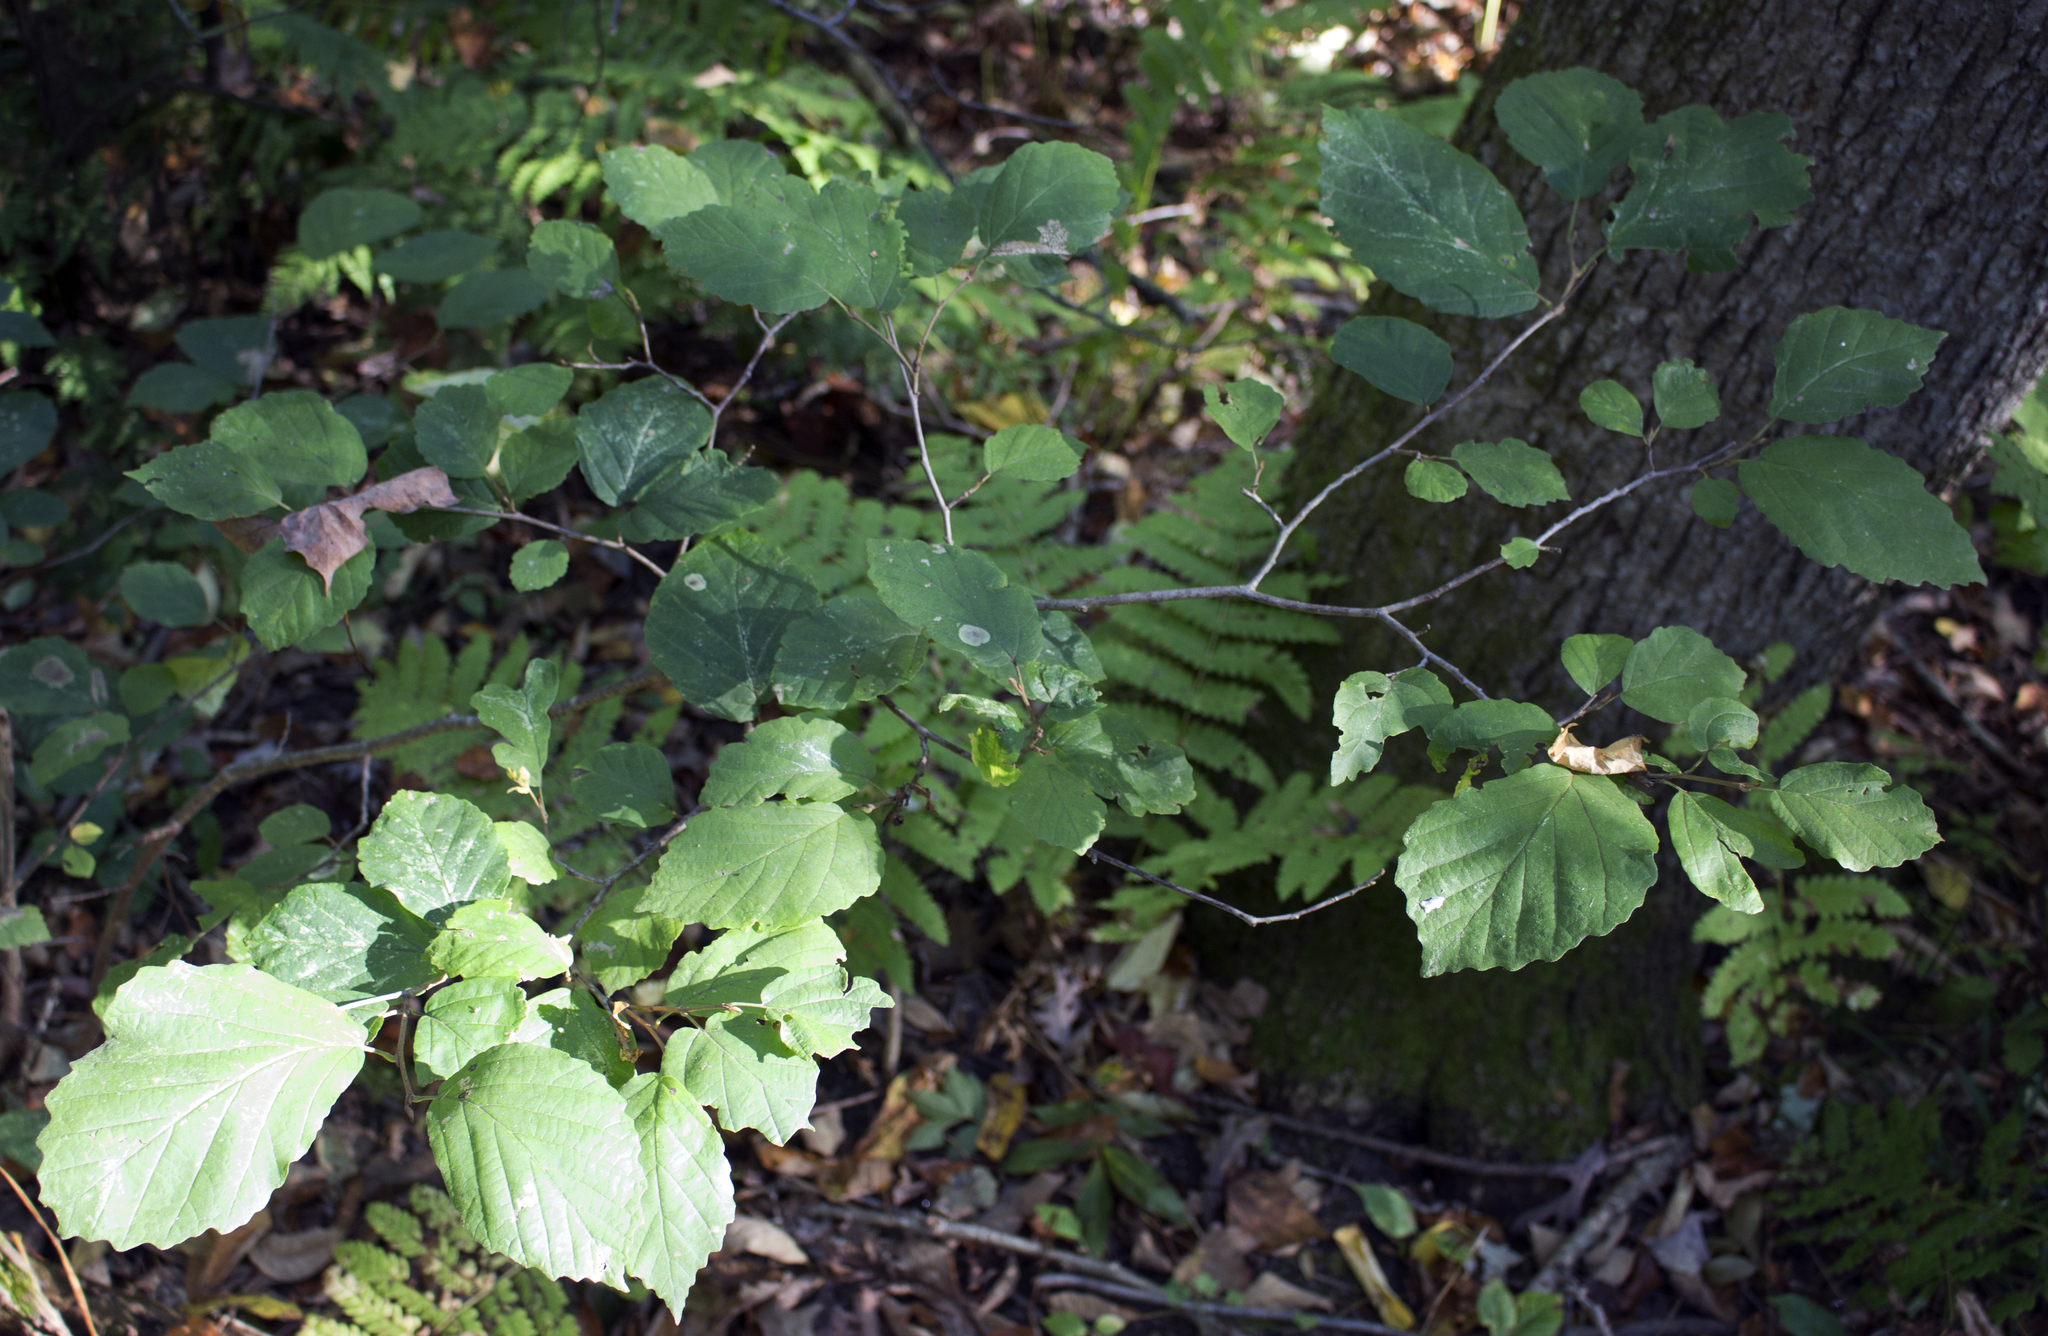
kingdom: Plantae
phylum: Tracheophyta
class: Magnoliopsida
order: Saxifragales
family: Hamamelidaceae
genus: Hamamelis
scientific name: Hamamelis virginiana
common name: Witch-hazel
